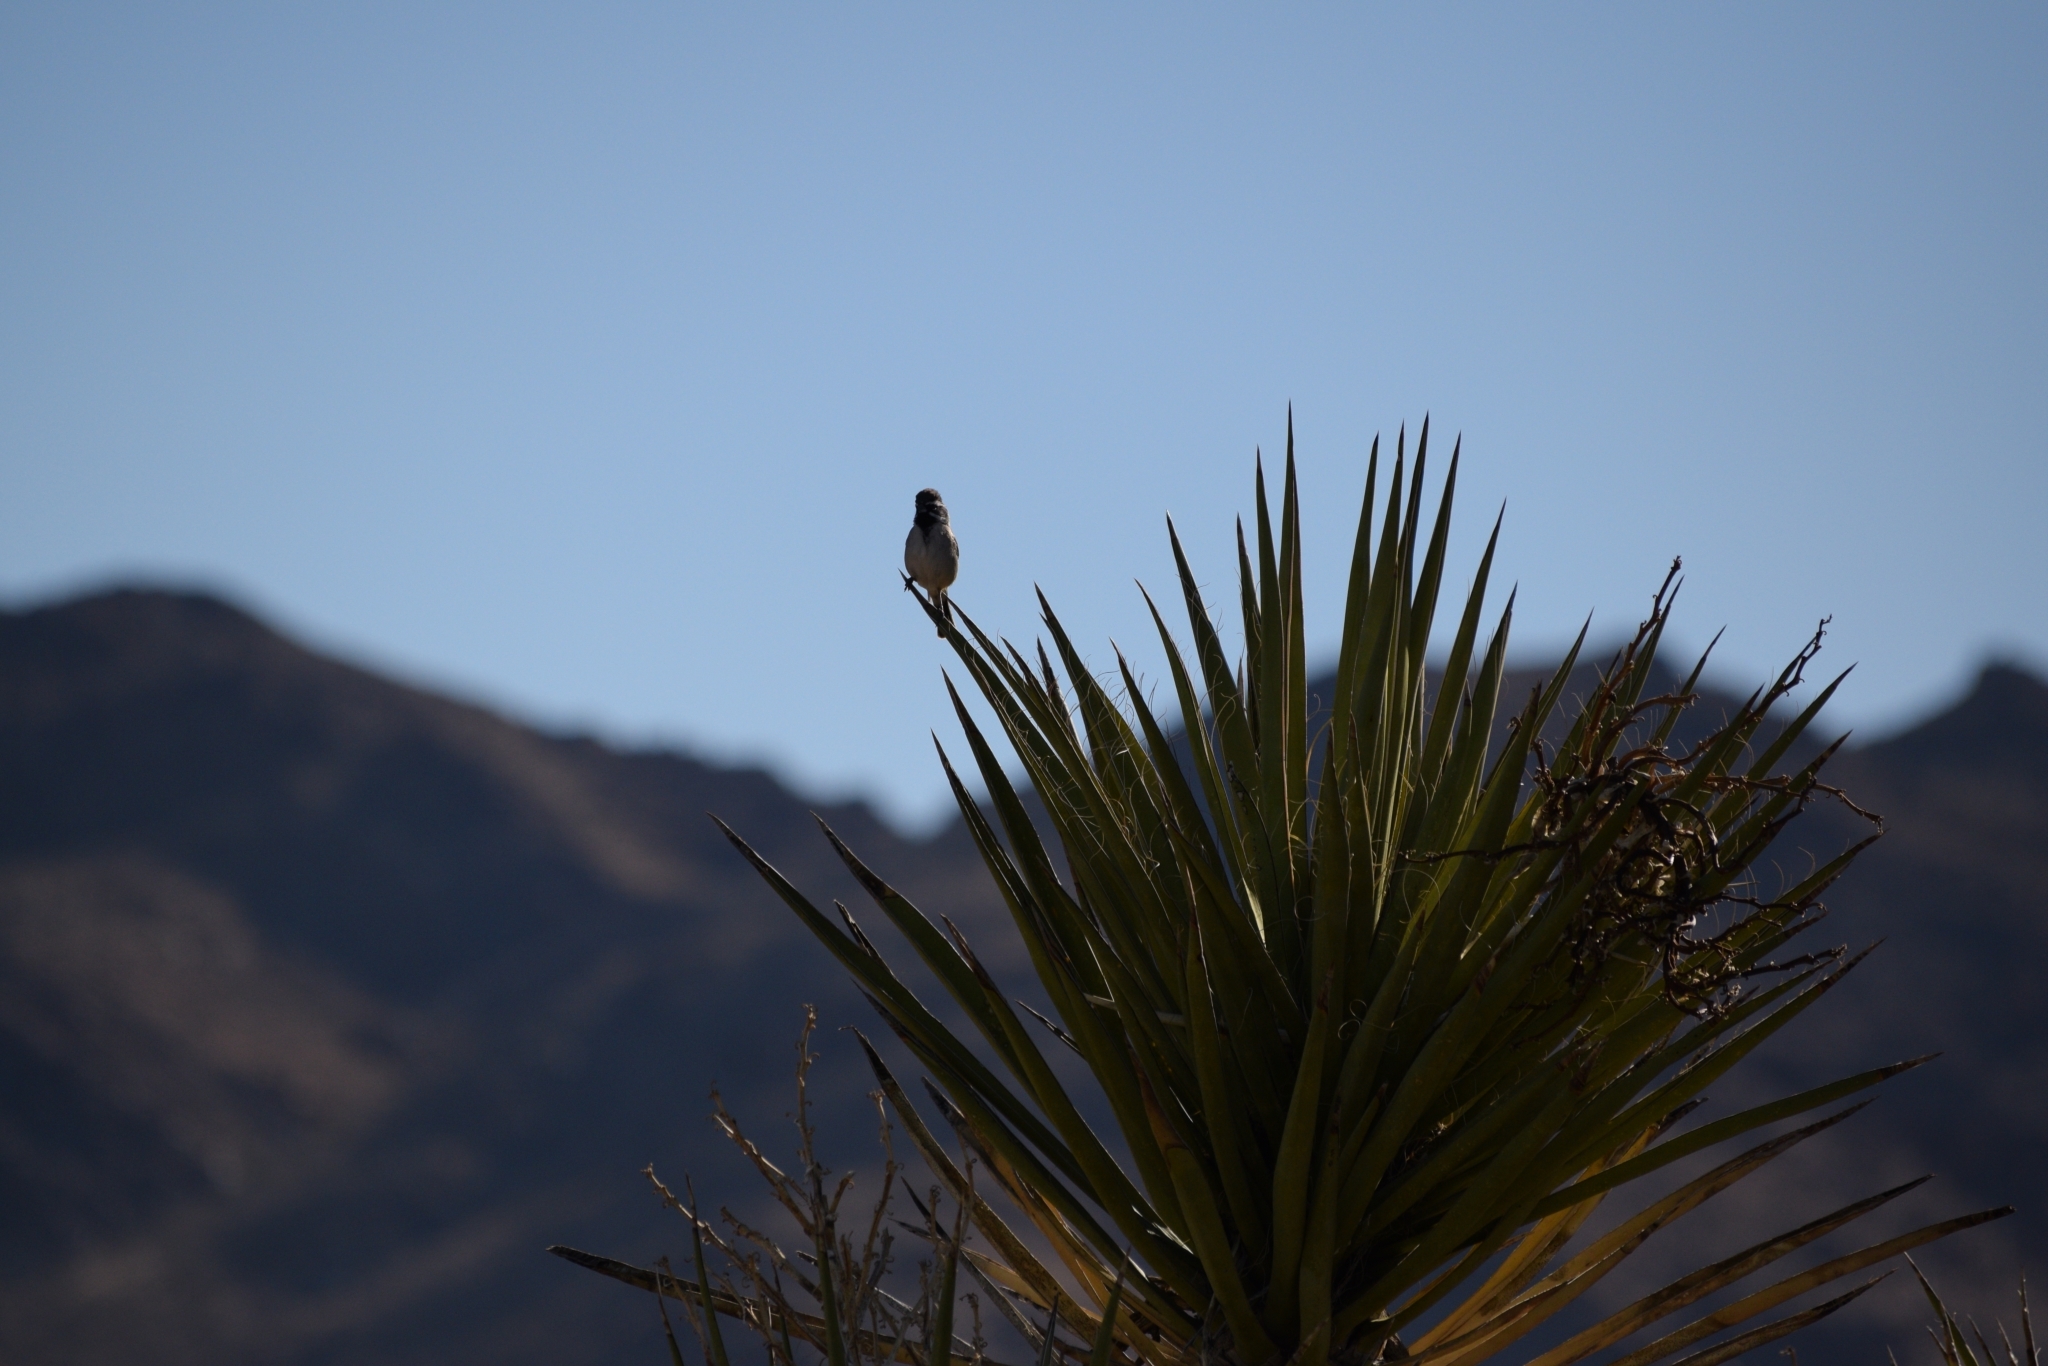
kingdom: Animalia
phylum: Chordata
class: Aves
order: Passeriformes
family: Passerellidae
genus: Amphispiza
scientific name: Amphispiza bilineata
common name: Black-throated sparrow
